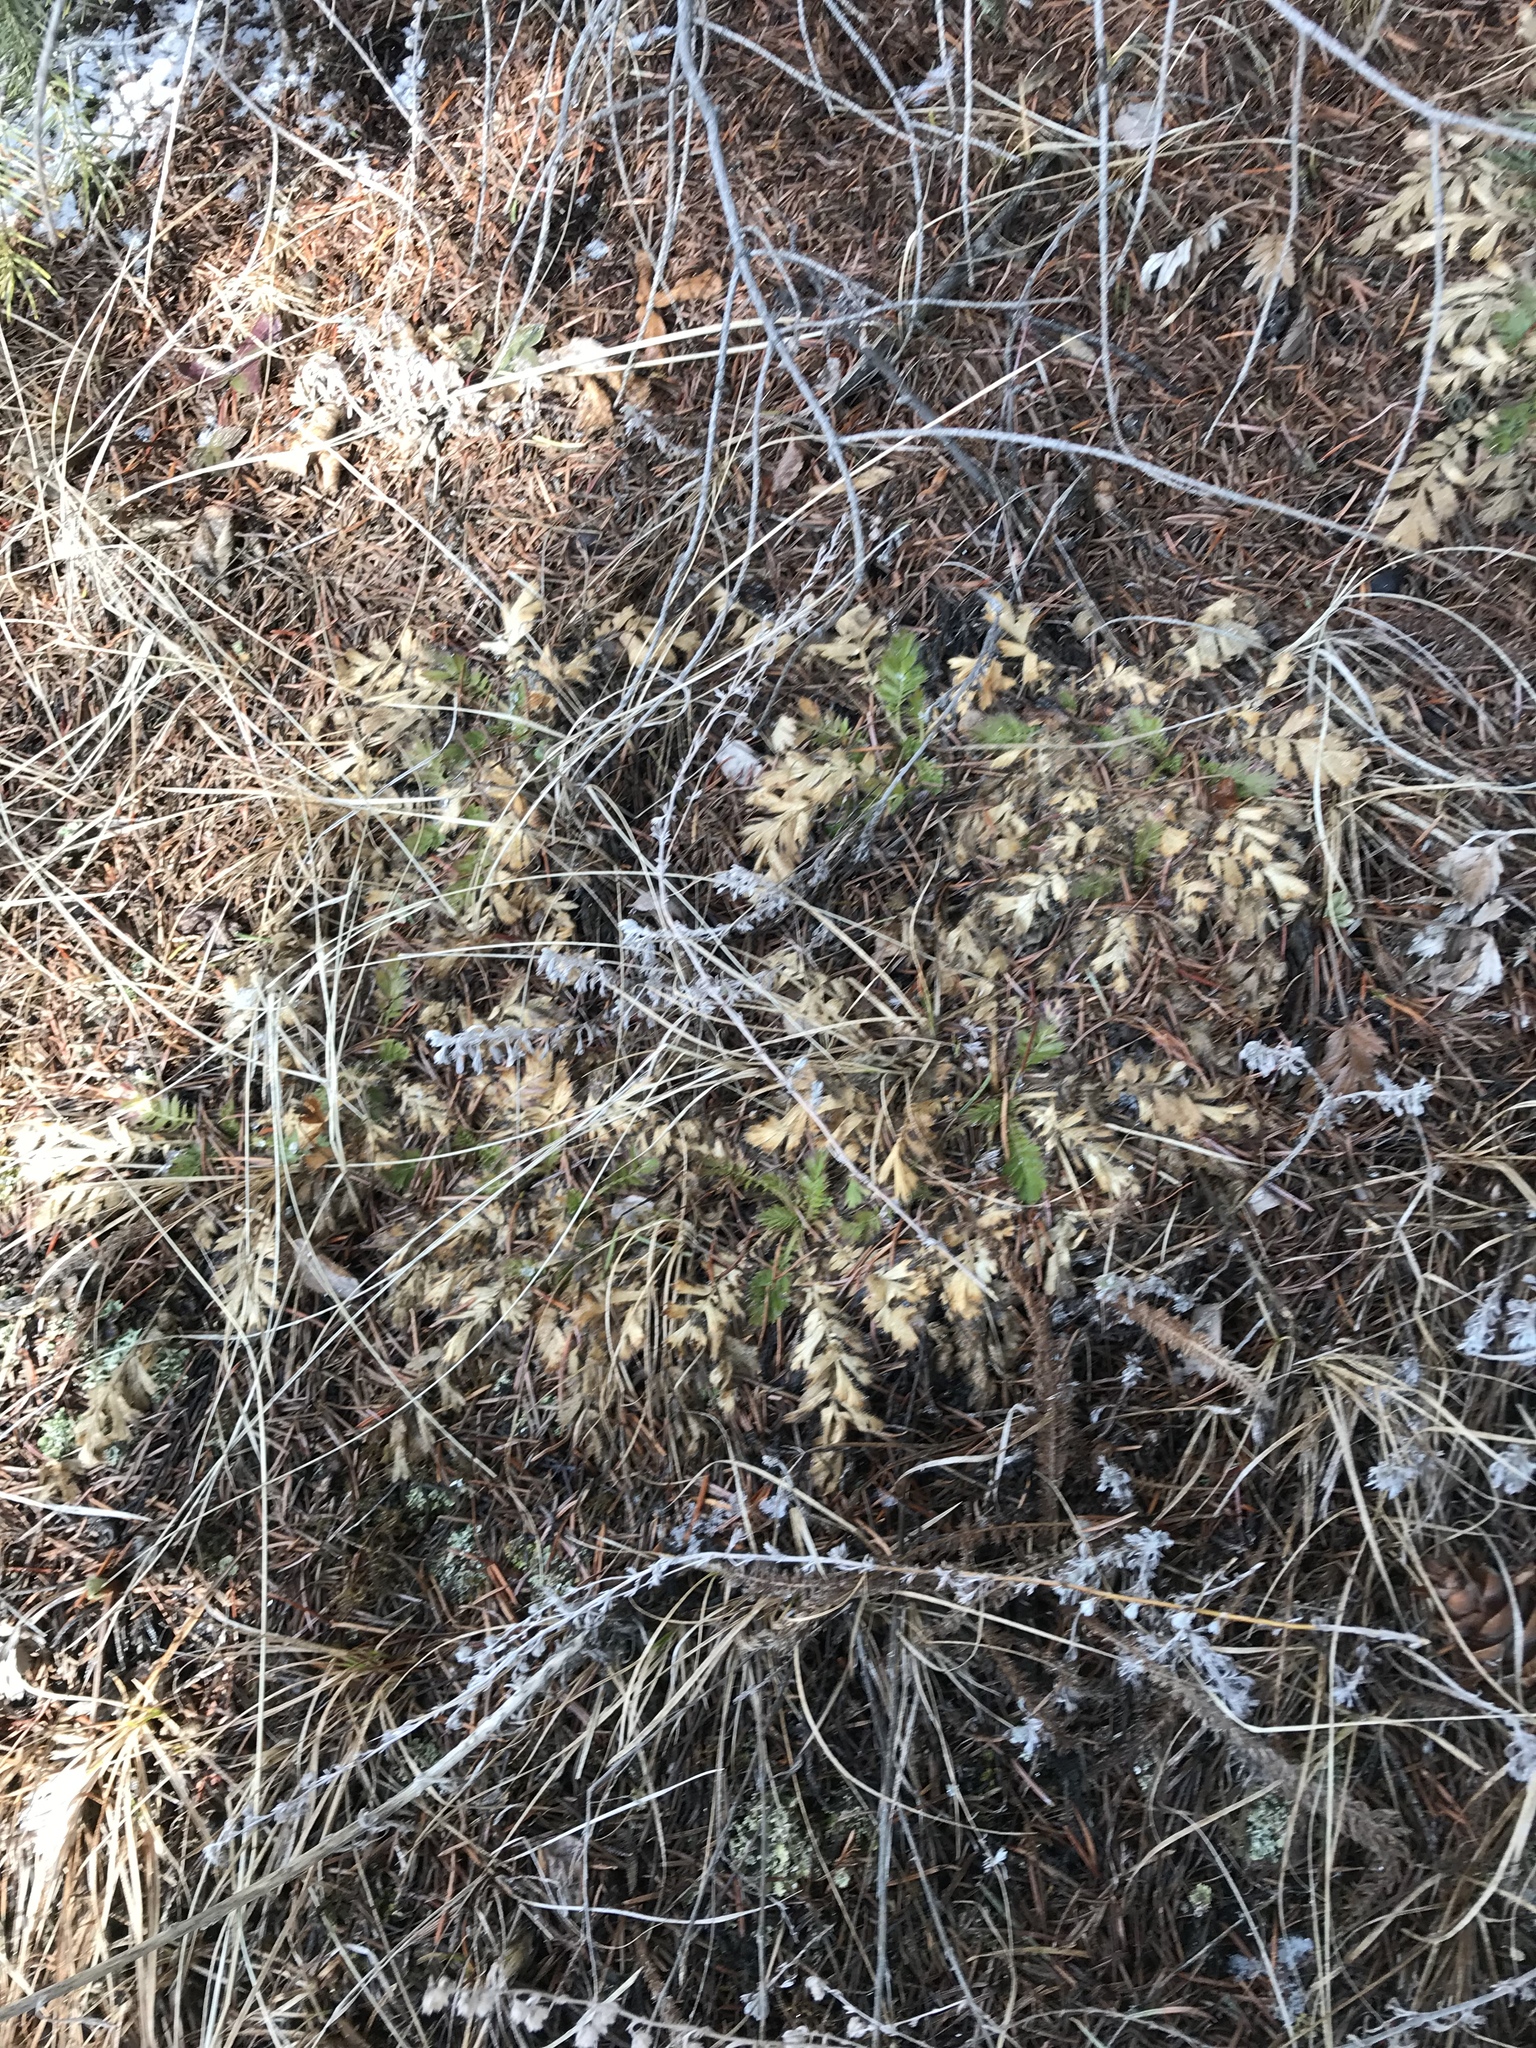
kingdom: Plantae
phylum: Tracheophyta
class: Magnoliopsida
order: Rosales
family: Rosaceae
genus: Geum
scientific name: Geum triflorum
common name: Old man's whiskers
